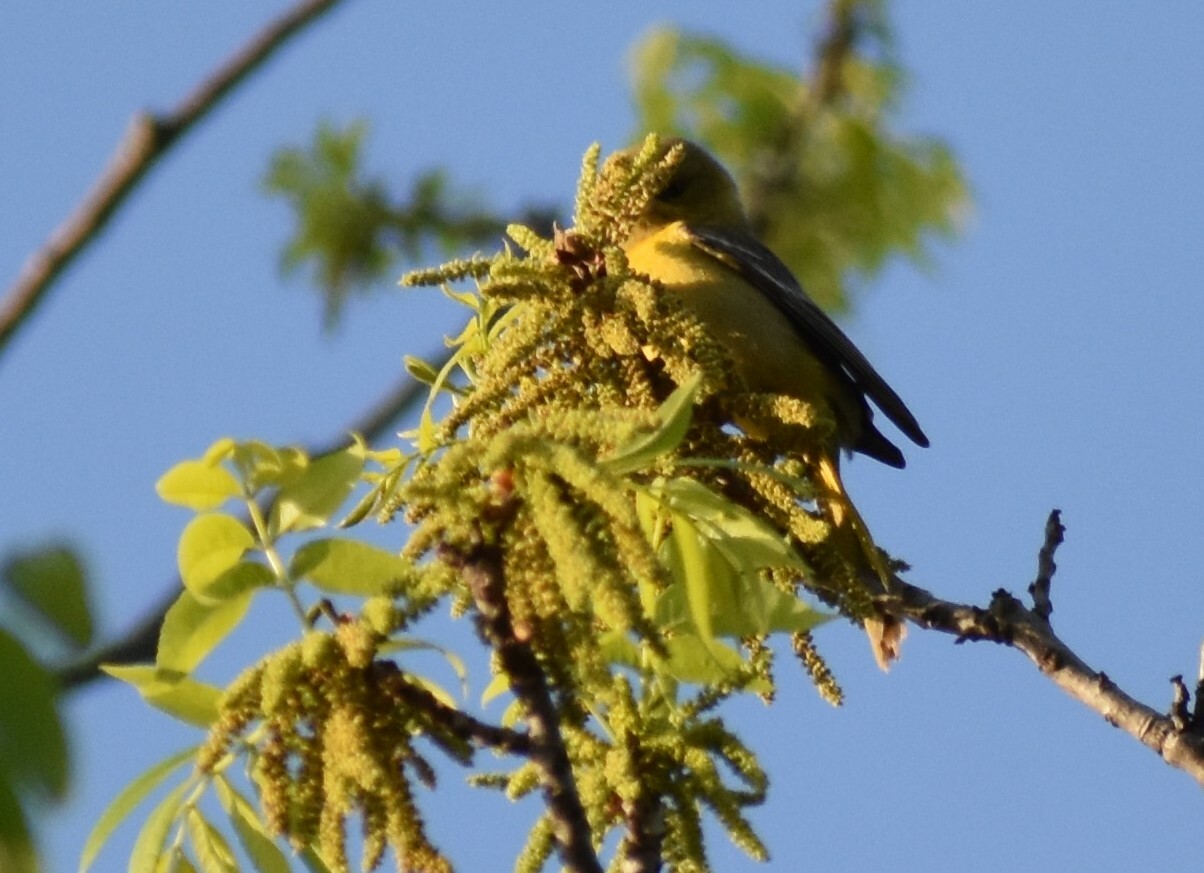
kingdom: Animalia
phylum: Chordata
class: Aves
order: Passeriformes
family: Icteridae
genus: Icterus
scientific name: Icterus spurius
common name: Orchard oriole
